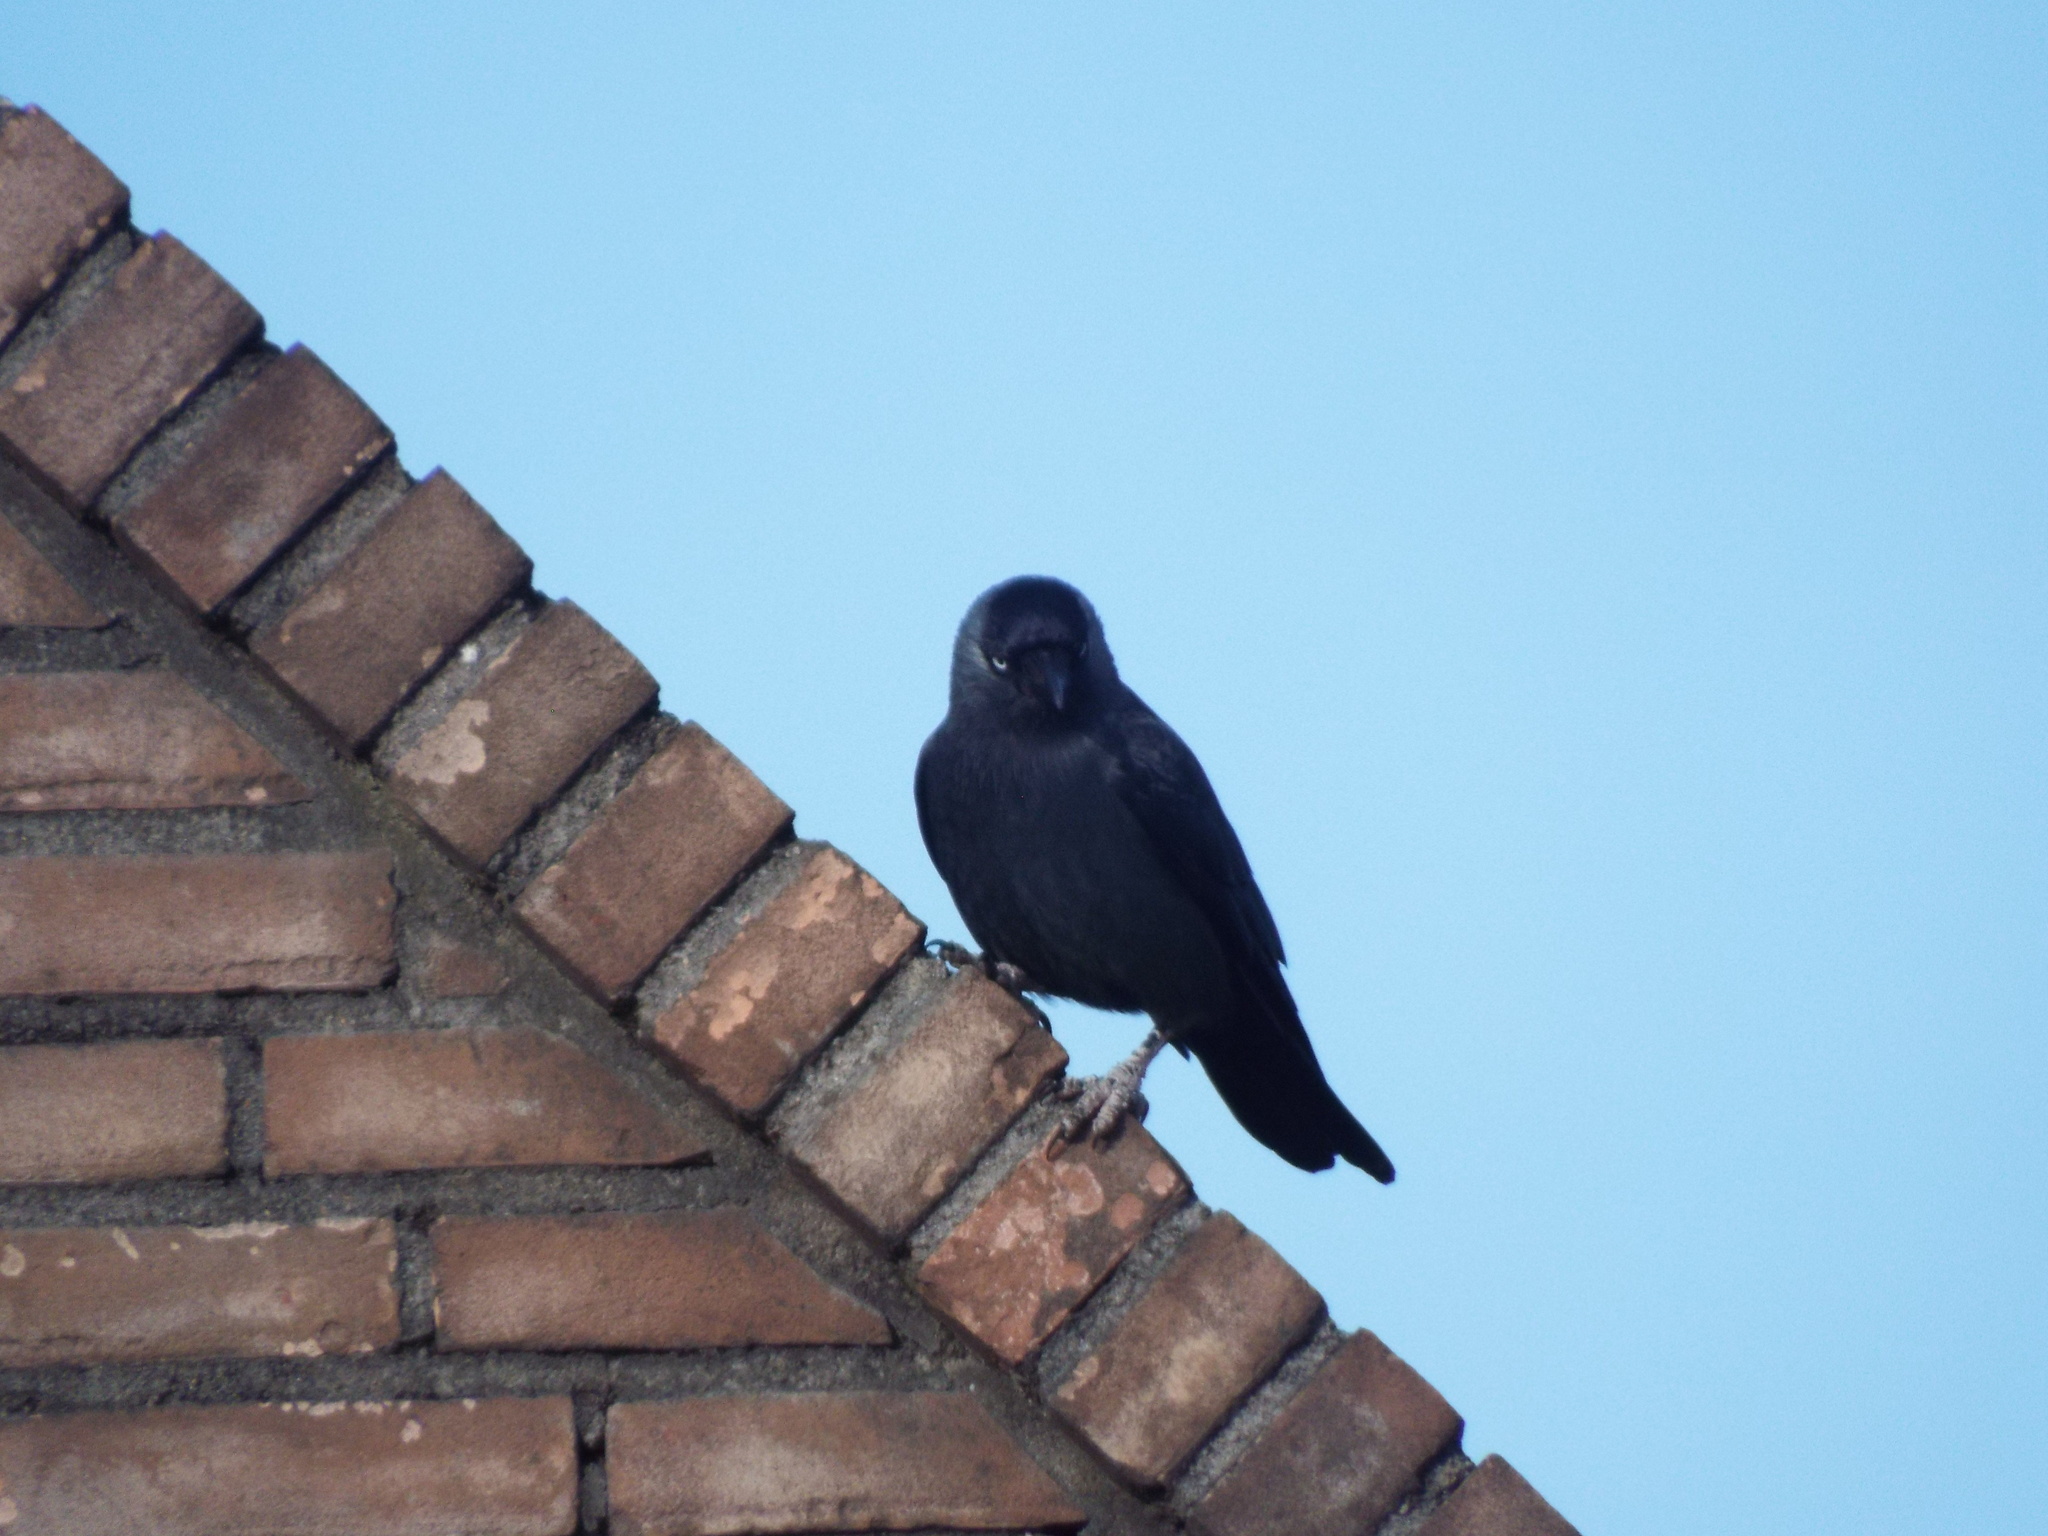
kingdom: Animalia
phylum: Chordata
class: Aves
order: Passeriformes
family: Corvidae
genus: Coloeus
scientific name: Coloeus monedula
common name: Western jackdaw
